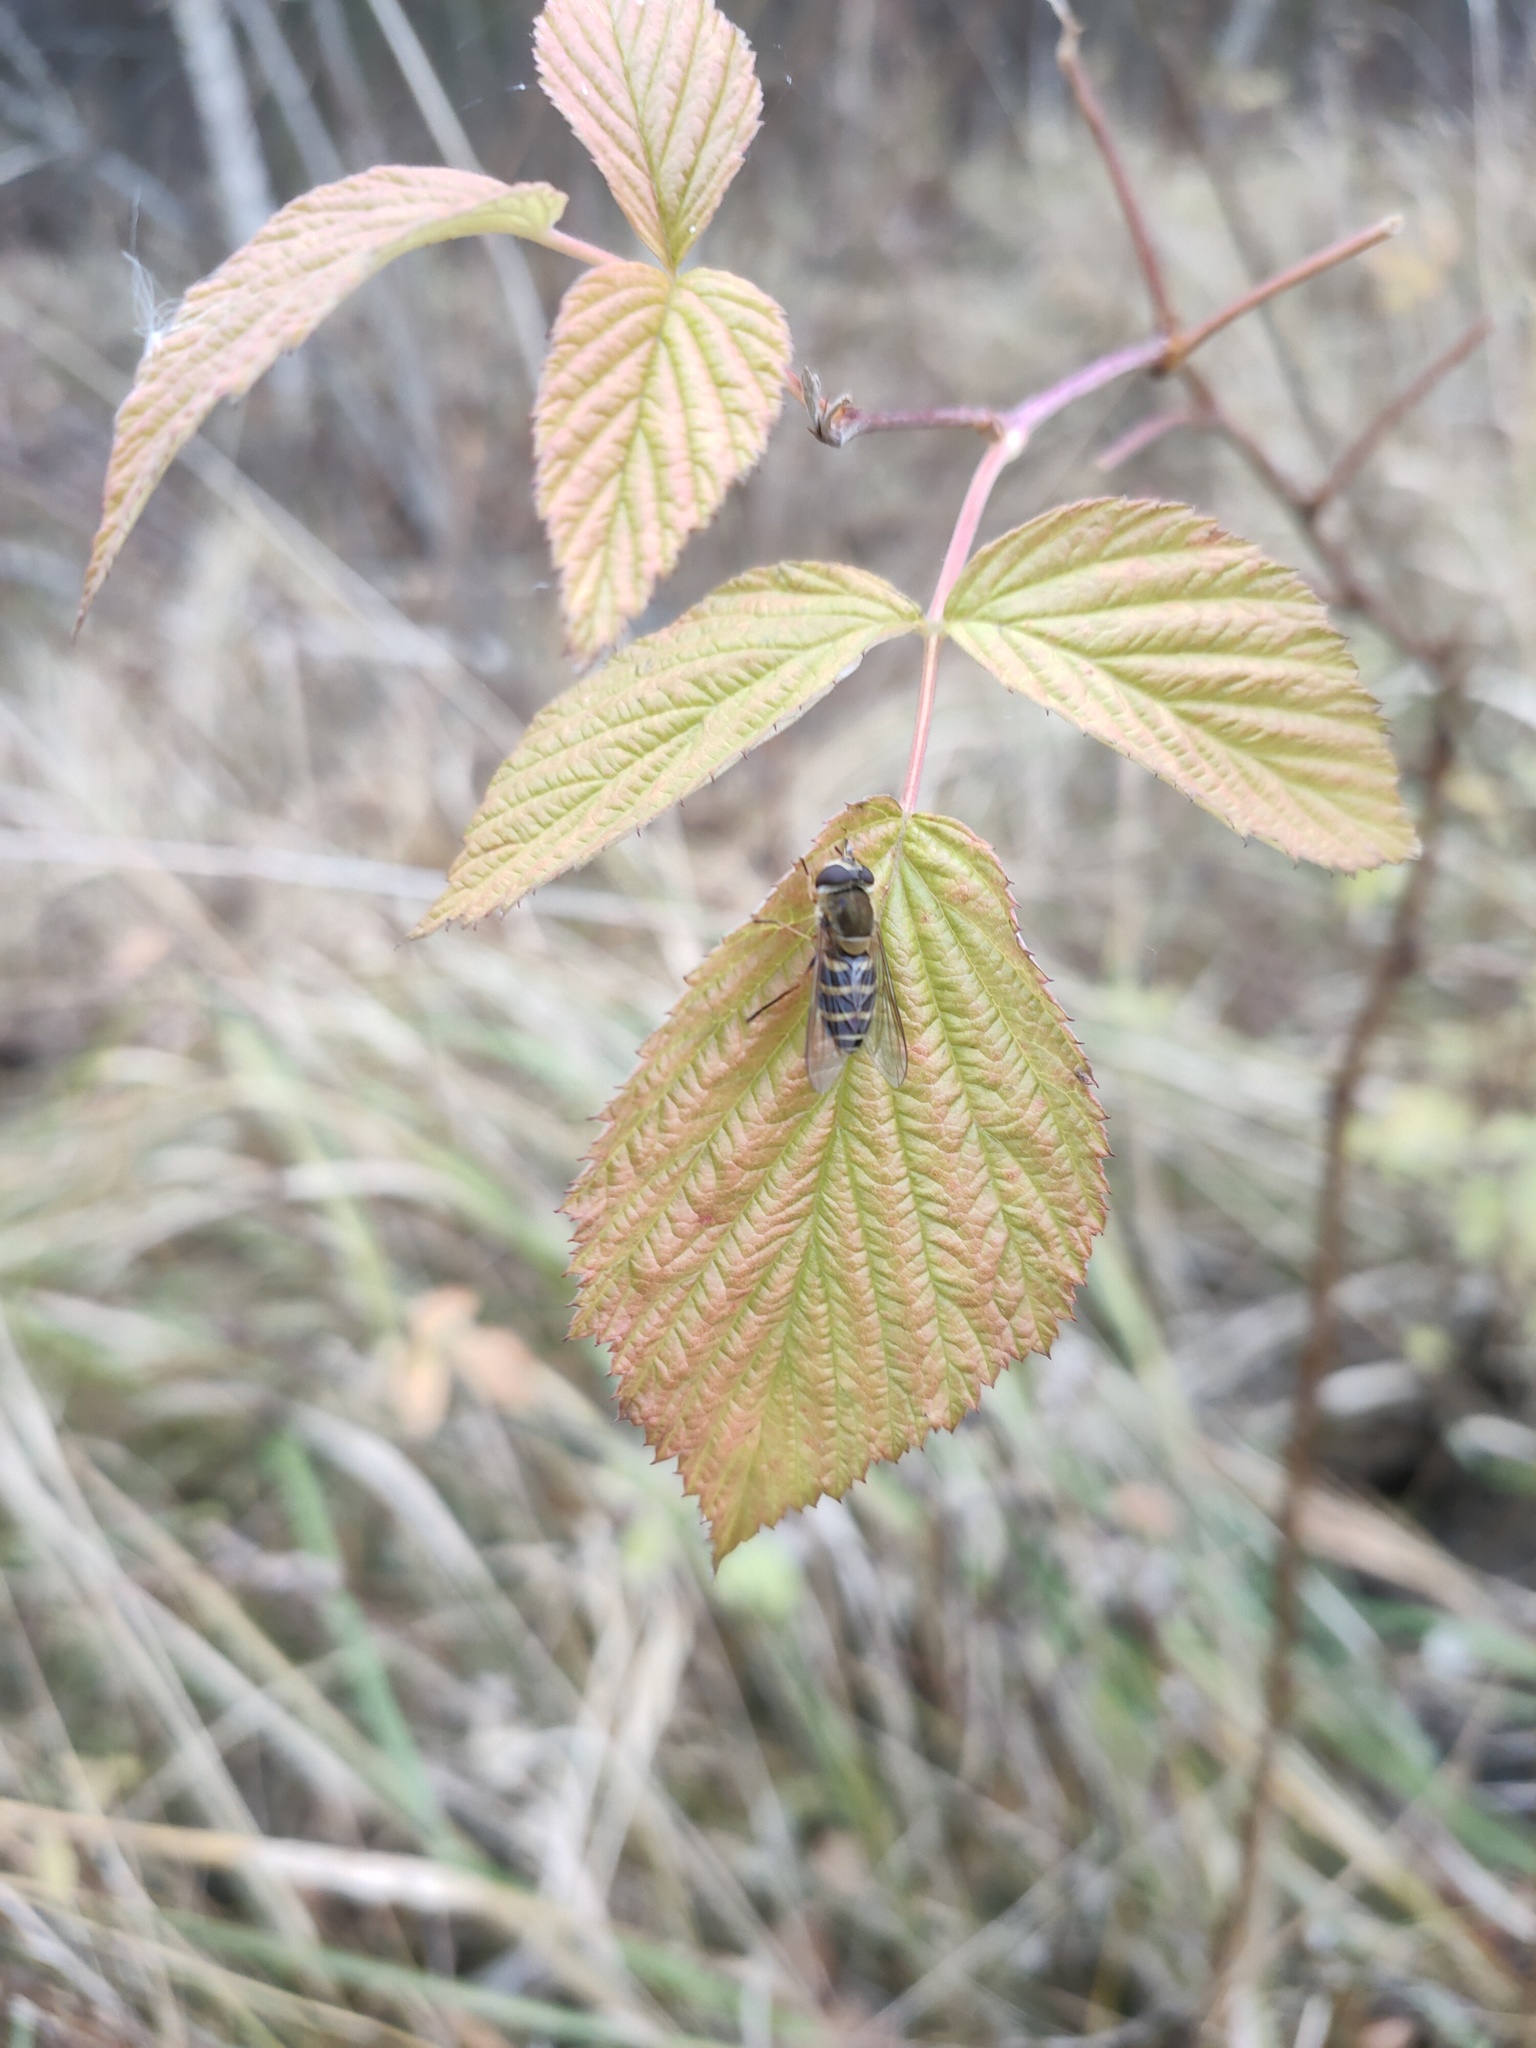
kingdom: Animalia
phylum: Arthropoda
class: Insecta
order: Diptera
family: Syrphidae
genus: Syrphus
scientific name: Syrphus
